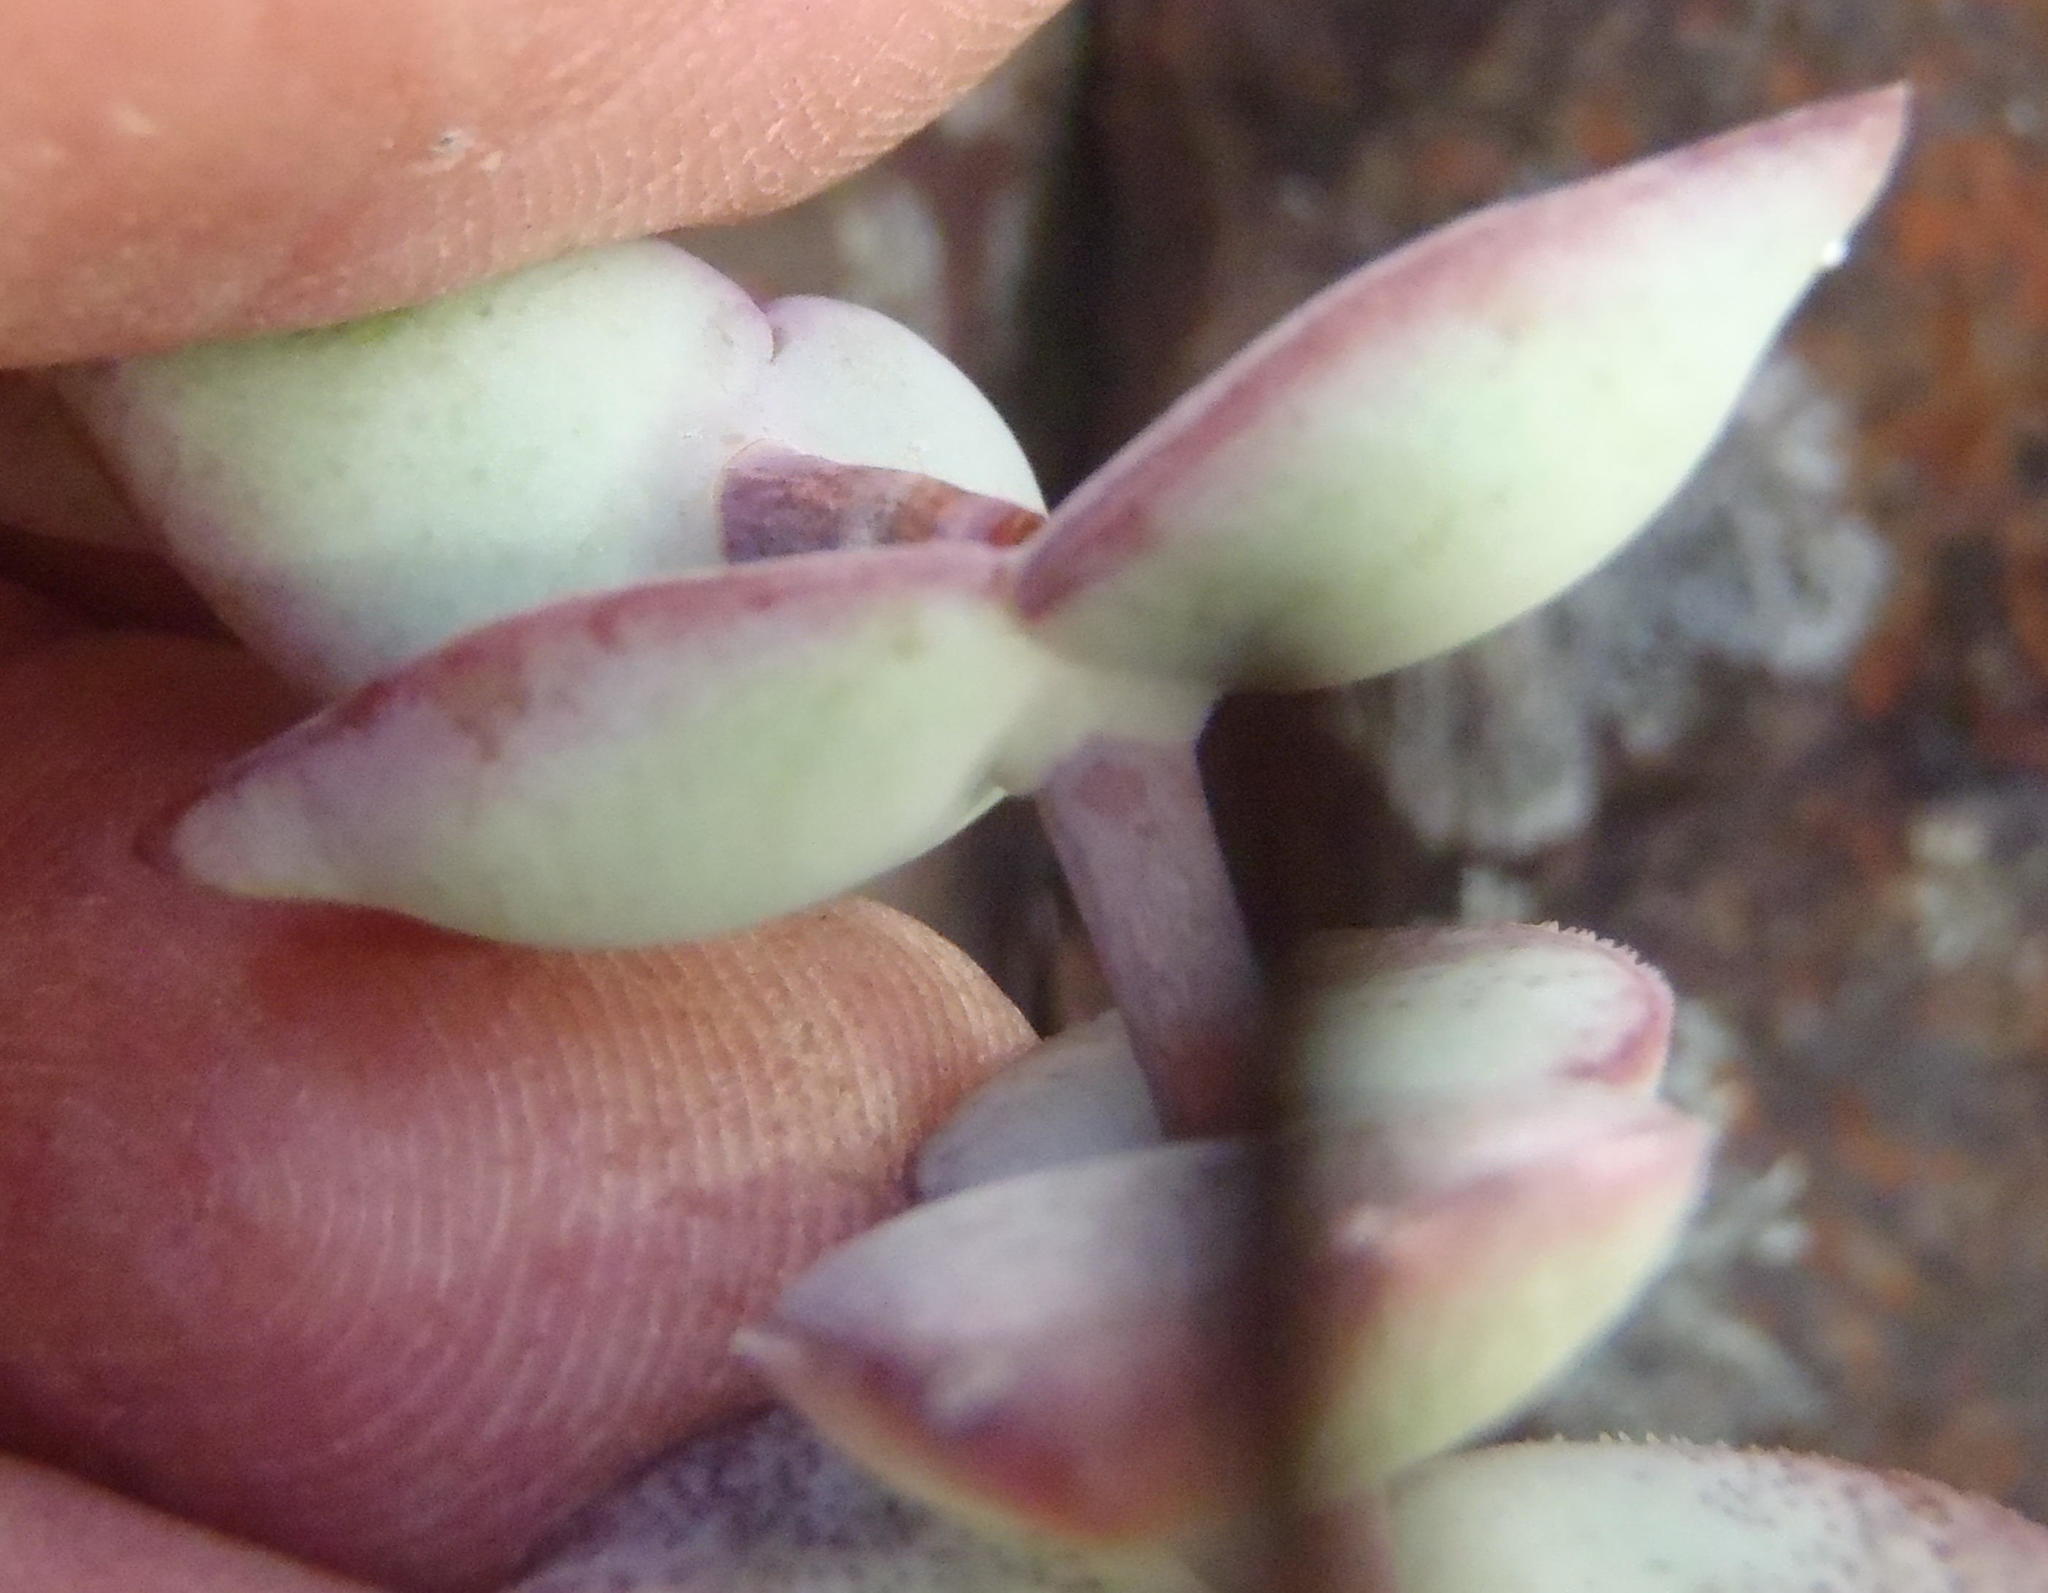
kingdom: Plantae
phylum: Tracheophyta
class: Magnoliopsida
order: Saxifragales
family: Crassulaceae
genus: Crassula
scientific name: Crassula perforata
